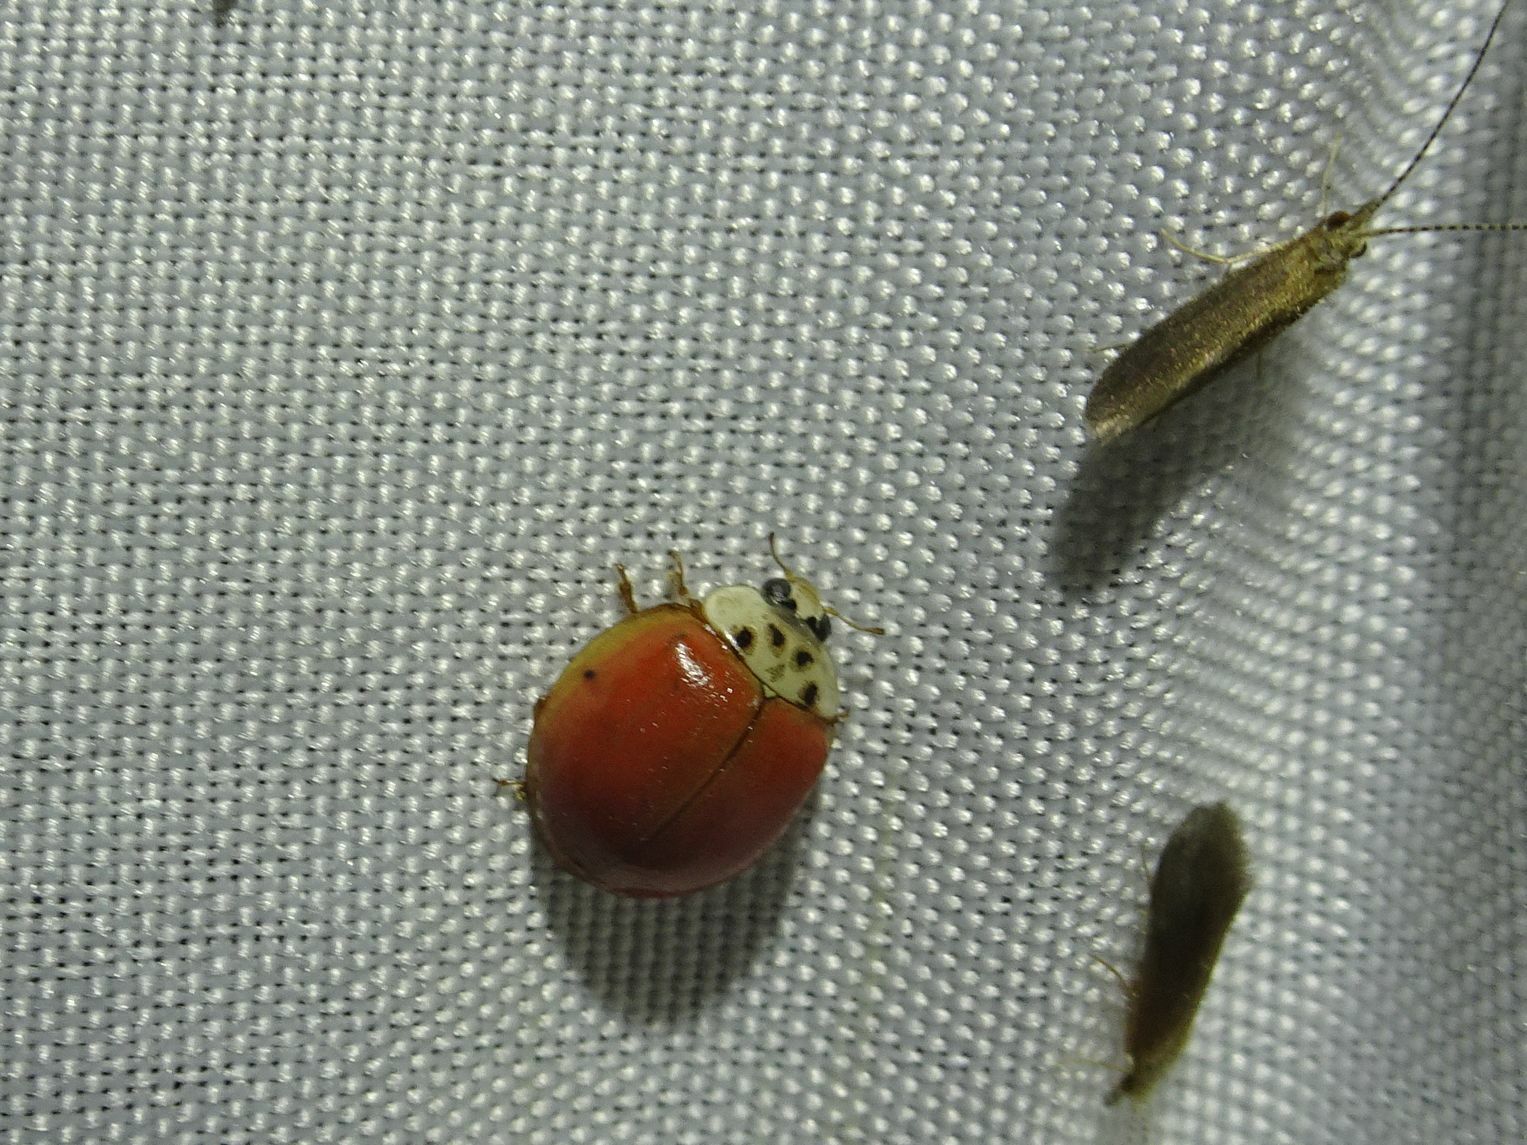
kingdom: Animalia
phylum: Arthropoda
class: Insecta
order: Coleoptera
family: Coccinellidae
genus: Harmonia
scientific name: Harmonia axyridis
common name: Harlequin ladybird
